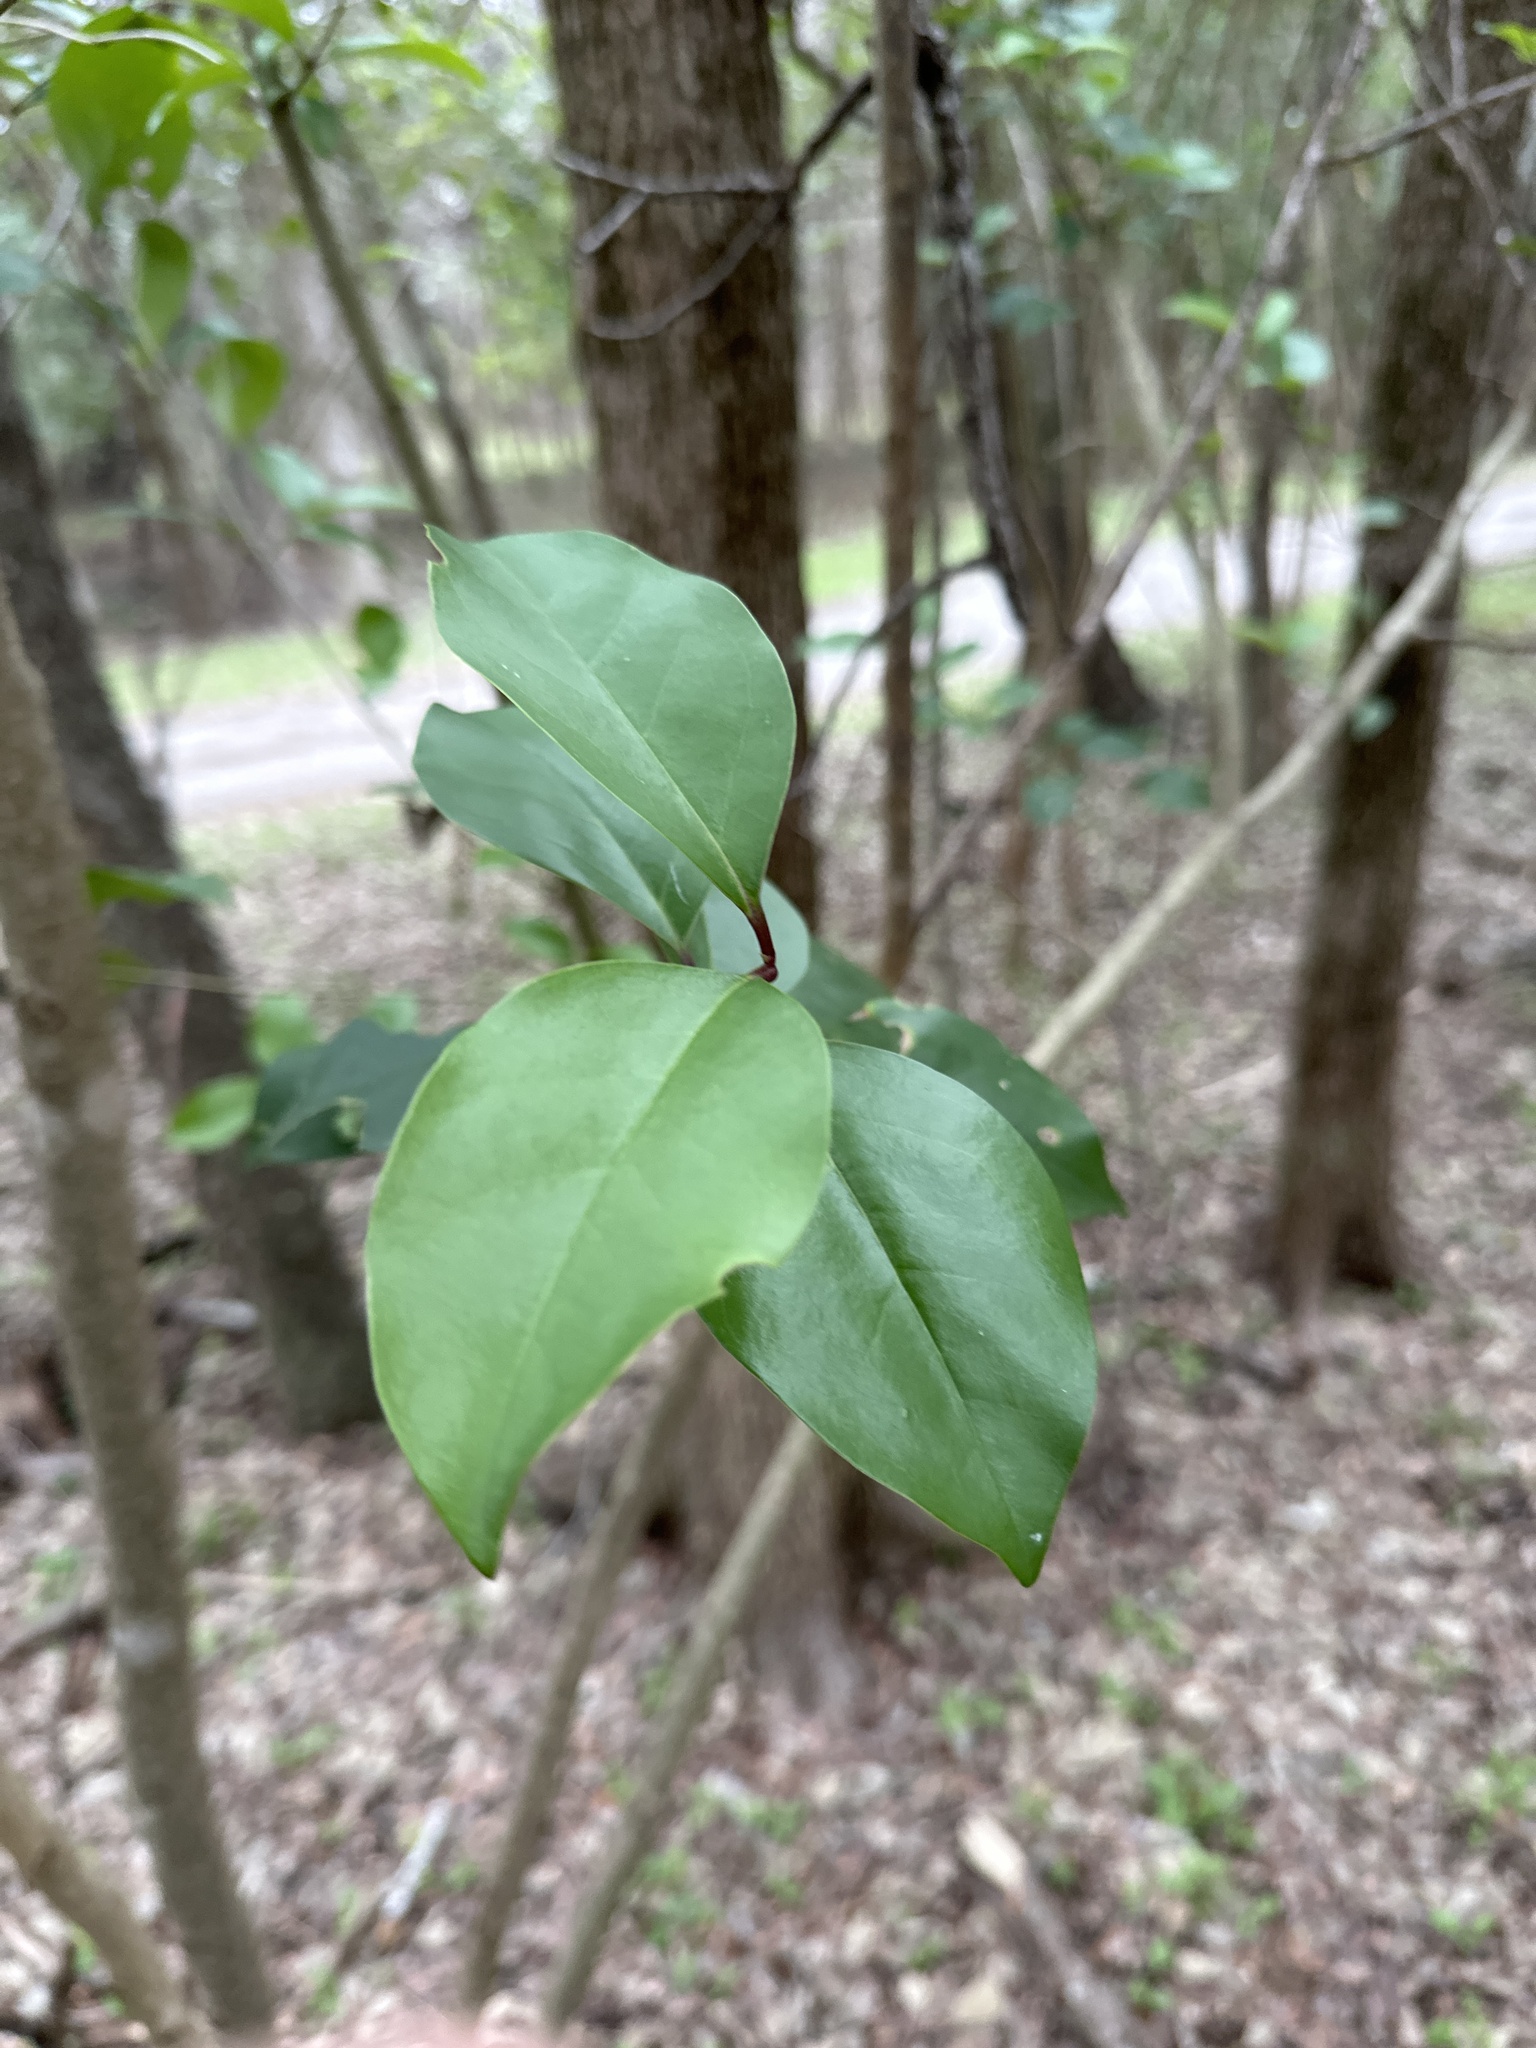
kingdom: Plantae
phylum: Tracheophyta
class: Magnoliopsida
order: Lamiales
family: Oleaceae
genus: Ligustrum
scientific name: Ligustrum lucidum
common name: Glossy privet
